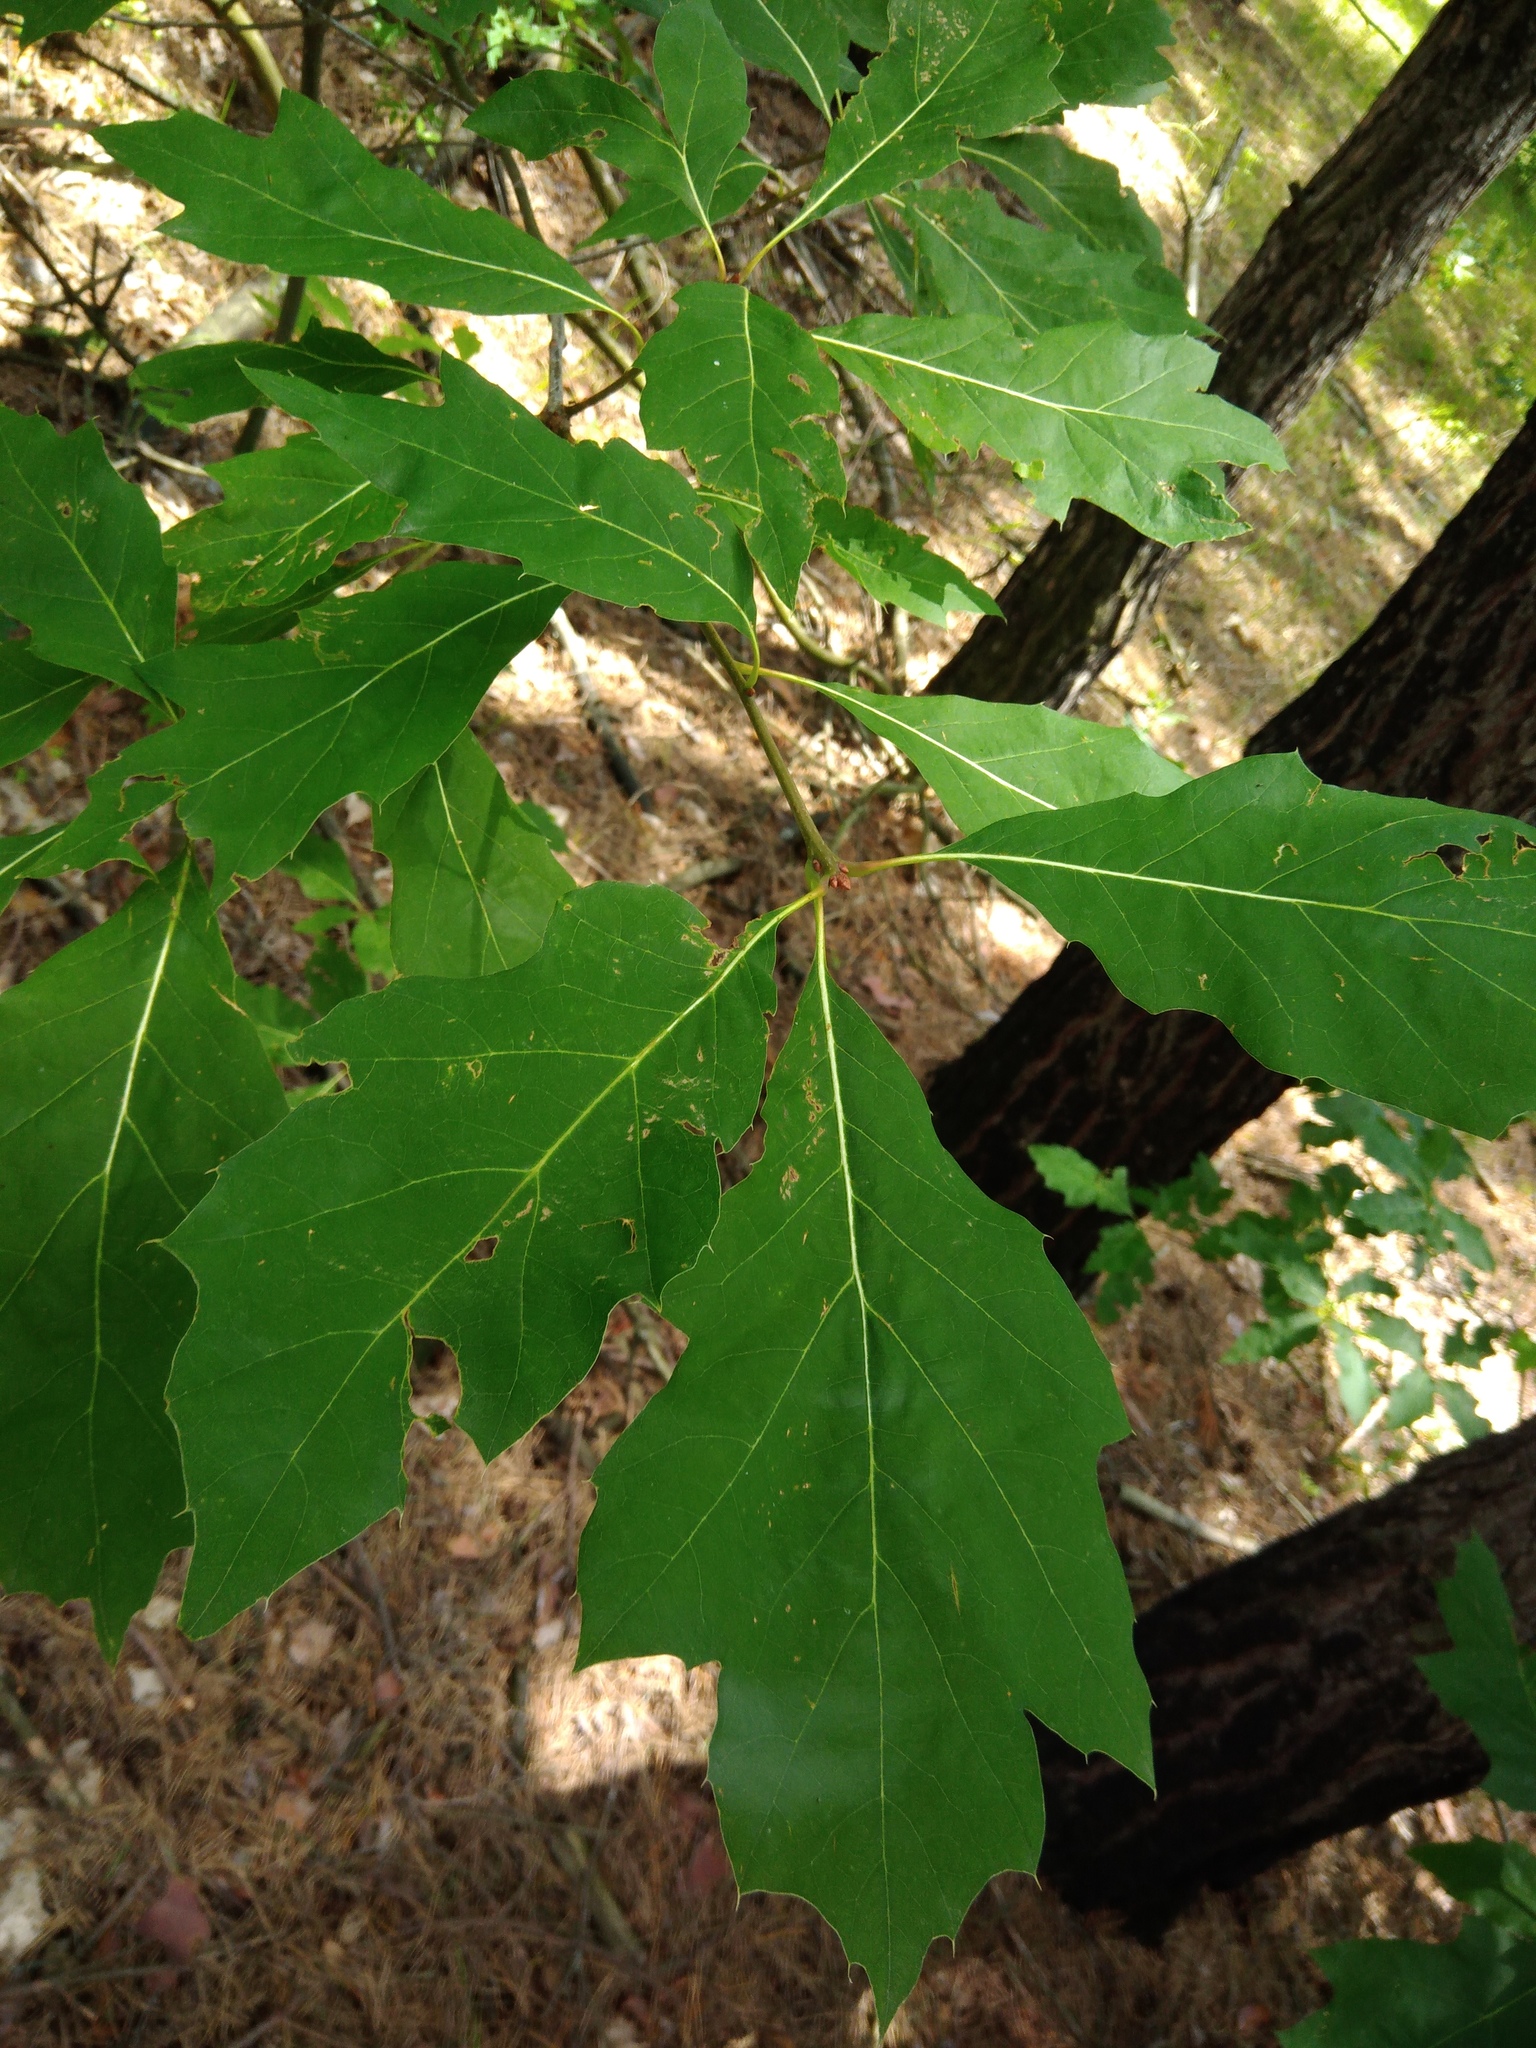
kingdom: Plantae
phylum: Tracheophyta
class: Magnoliopsida
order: Fagales
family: Fagaceae
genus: Quercus
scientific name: Quercus rubra
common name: Red oak
